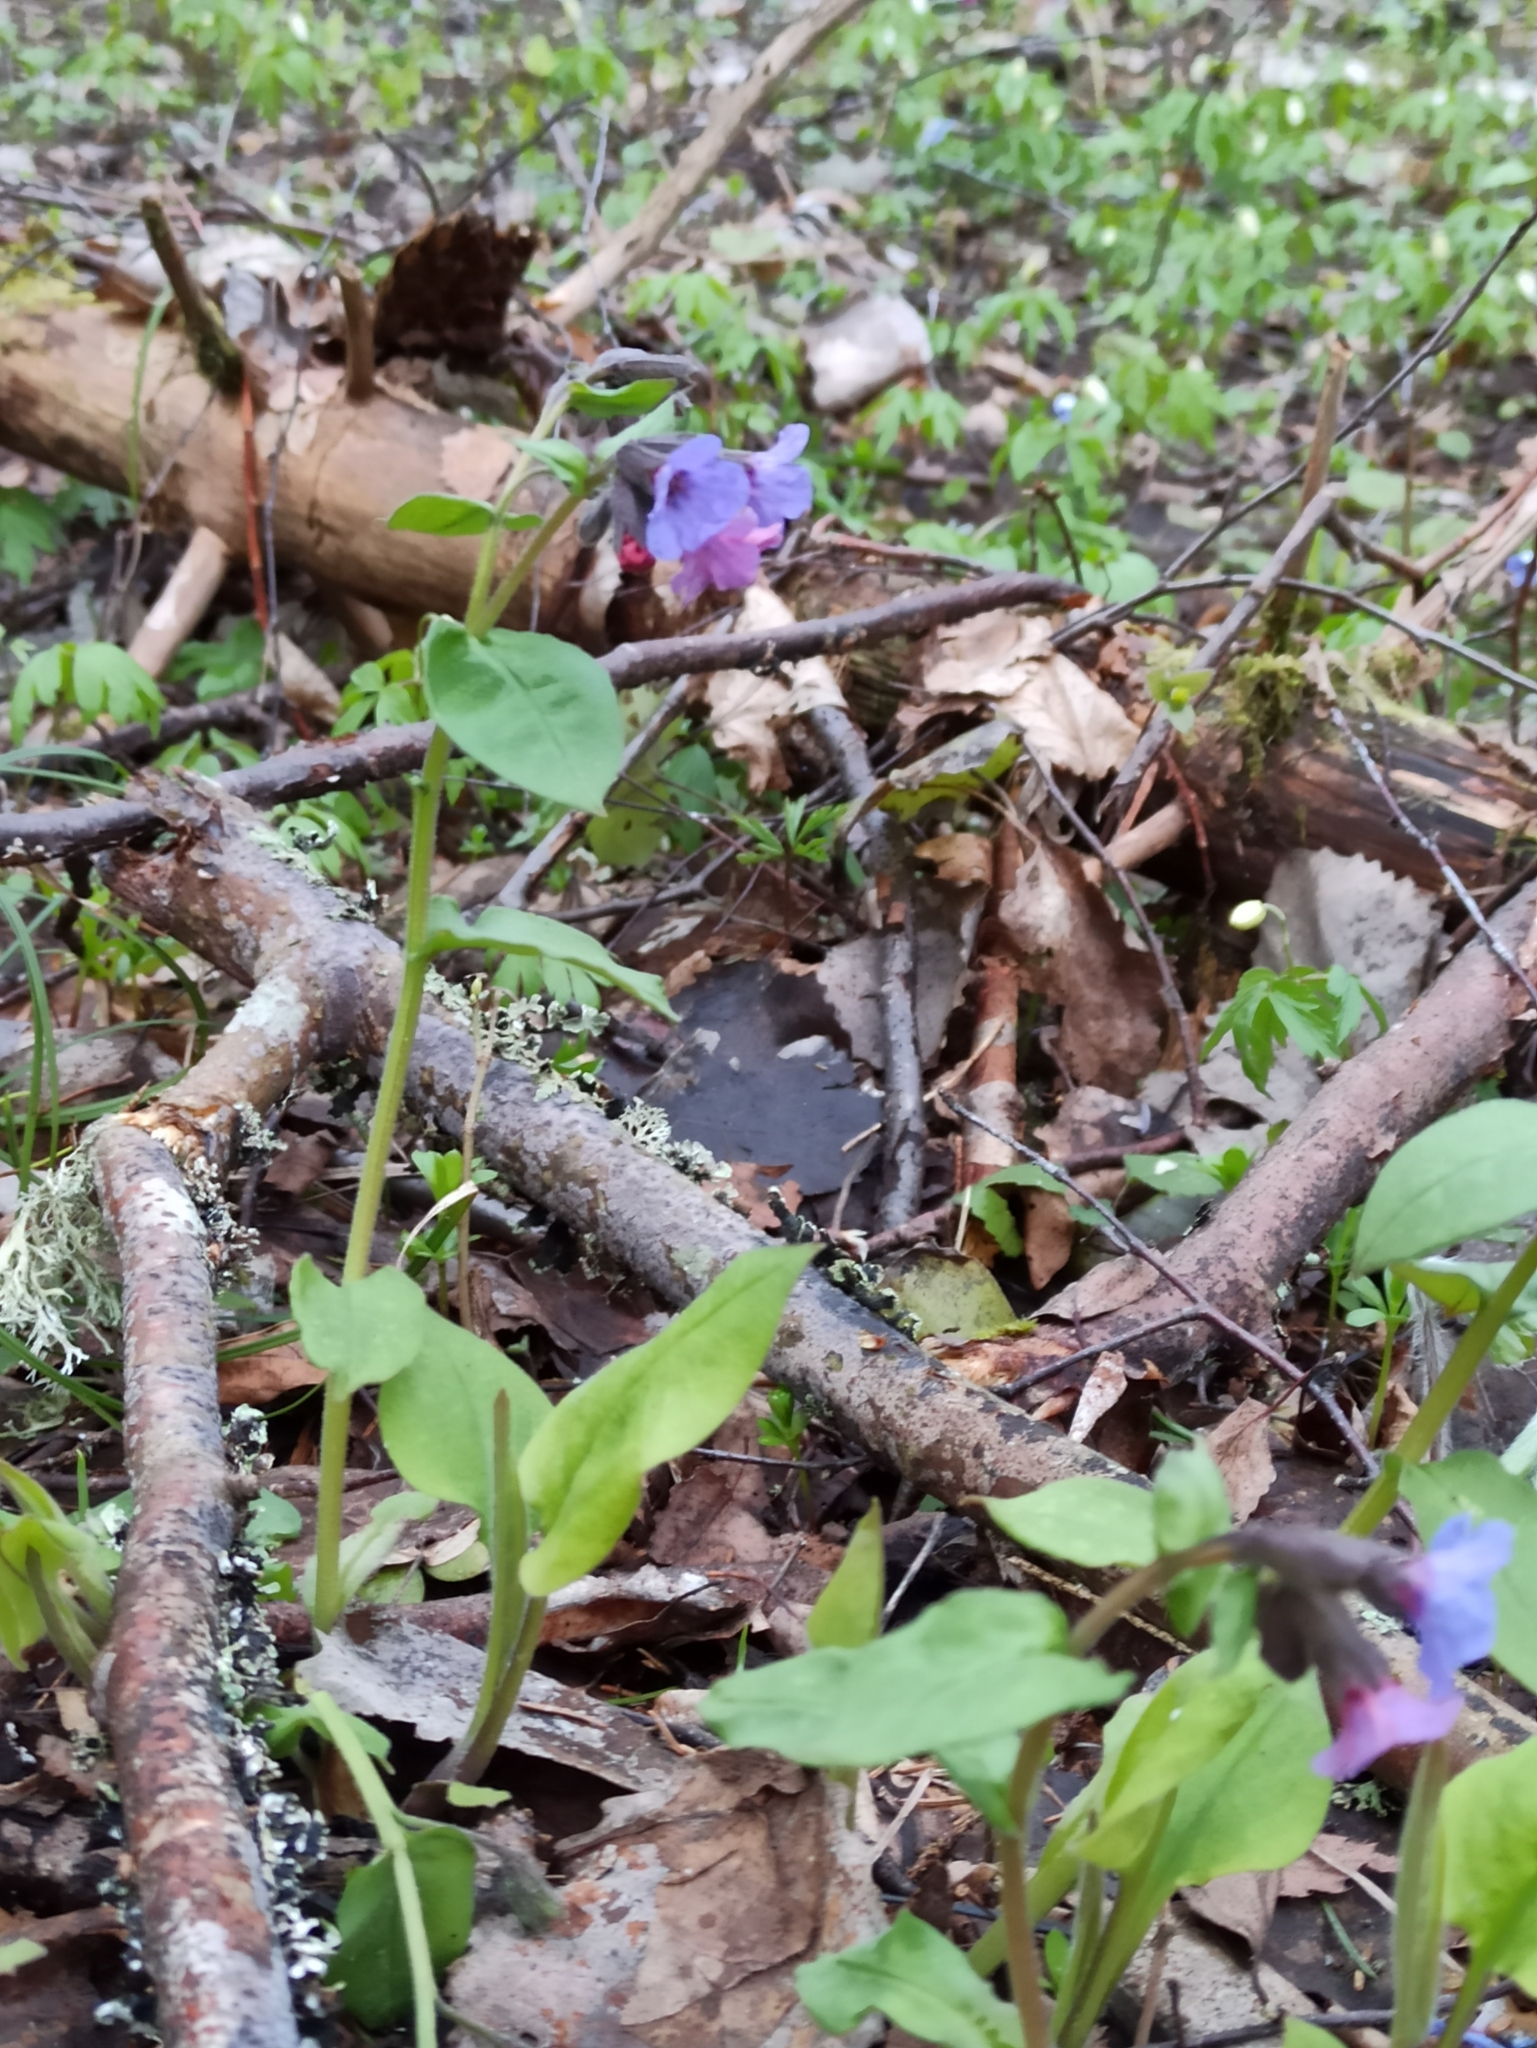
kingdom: Plantae
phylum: Tracheophyta
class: Magnoliopsida
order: Boraginales
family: Boraginaceae
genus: Pulmonaria
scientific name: Pulmonaria obscura
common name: Suffolk lungwort
